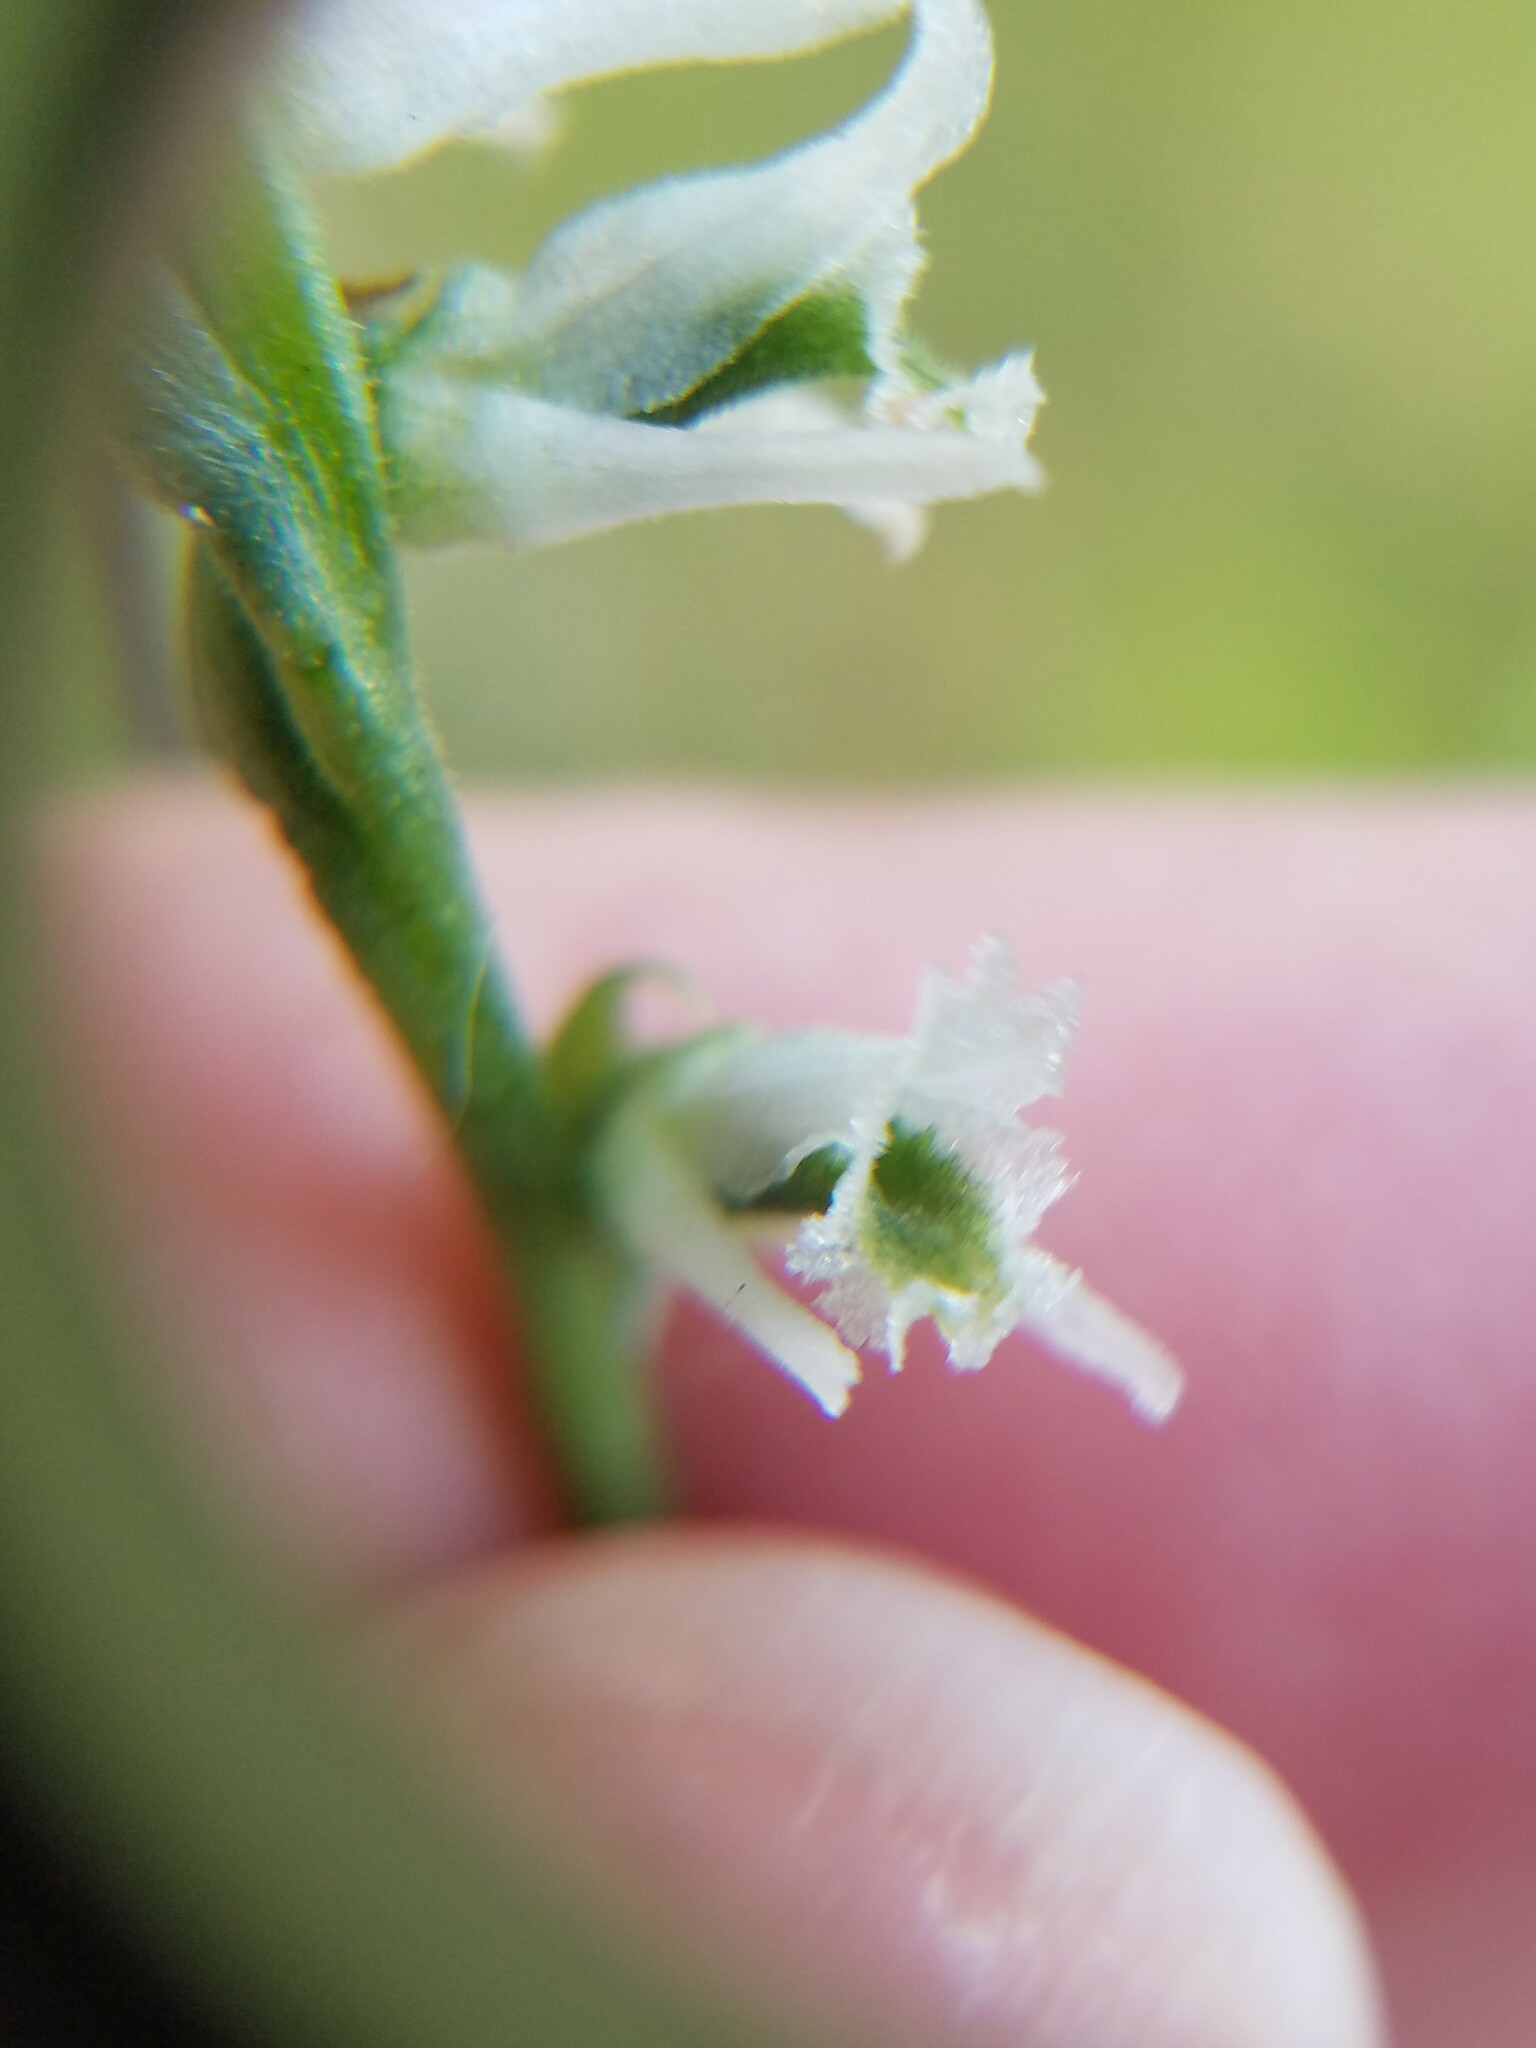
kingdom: Plantae
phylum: Tracheophyta
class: Liliopsida
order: Asparagales
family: Orchidaceae
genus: Spiranthes
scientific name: Spiranthes lacera
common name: Northern slender ladies'-tresses
